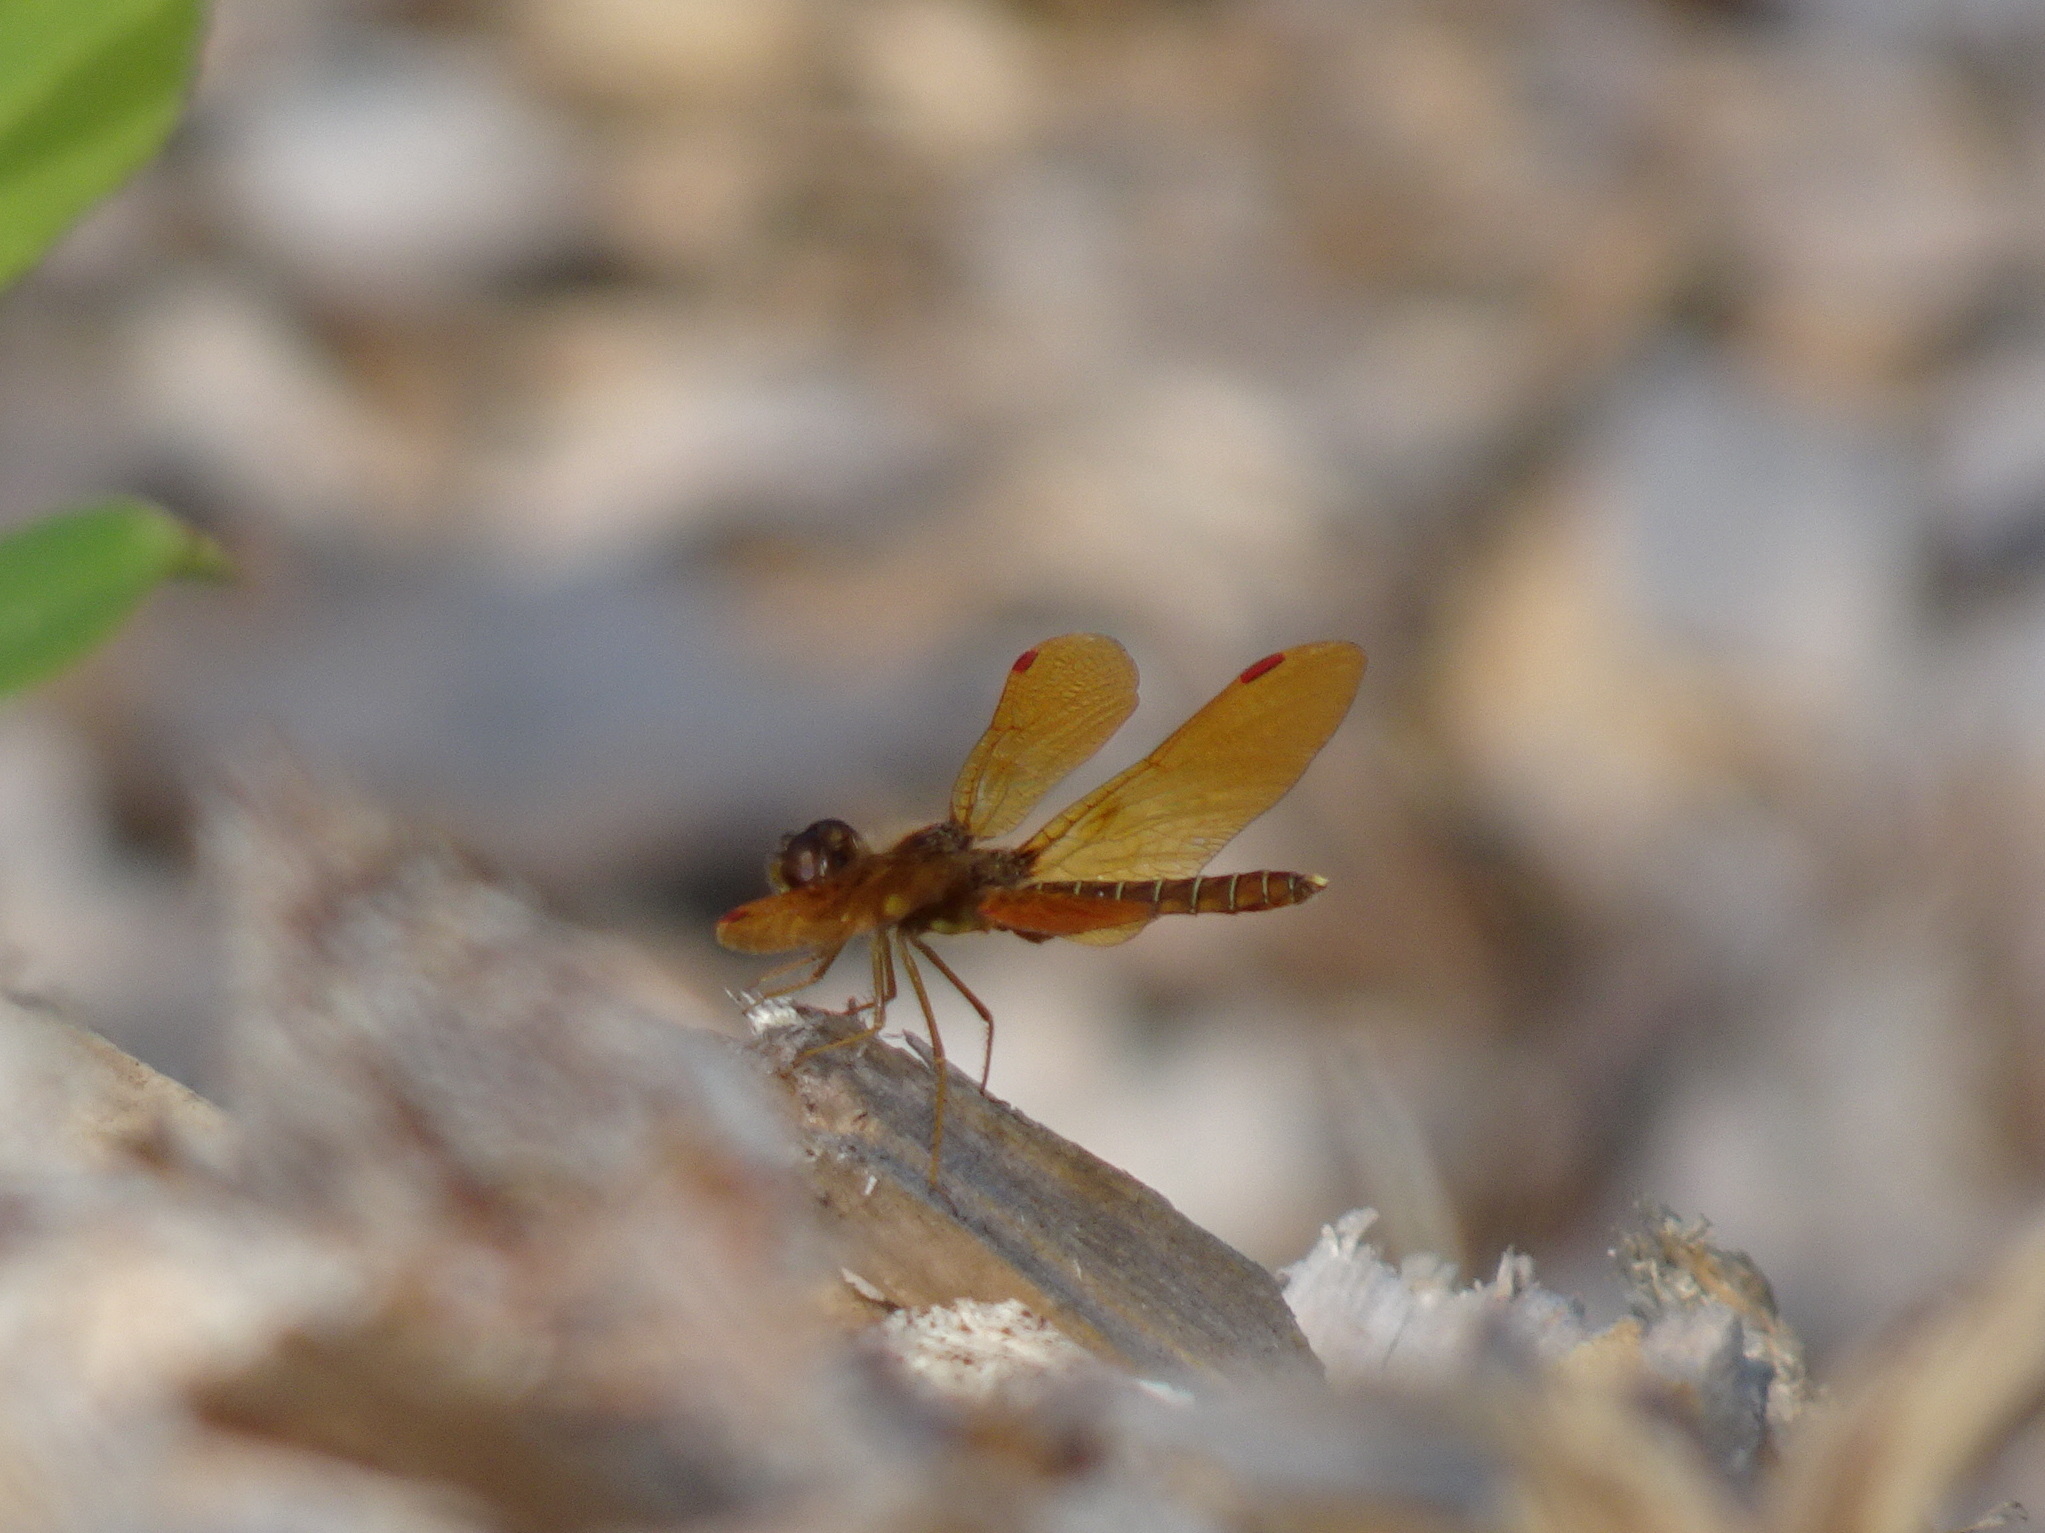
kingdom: Animalia
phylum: Arthropoda
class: Insecta
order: Odonata
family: Libellulidae
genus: Perithemis
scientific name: Perithemis tenera
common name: Eastern amberwing
